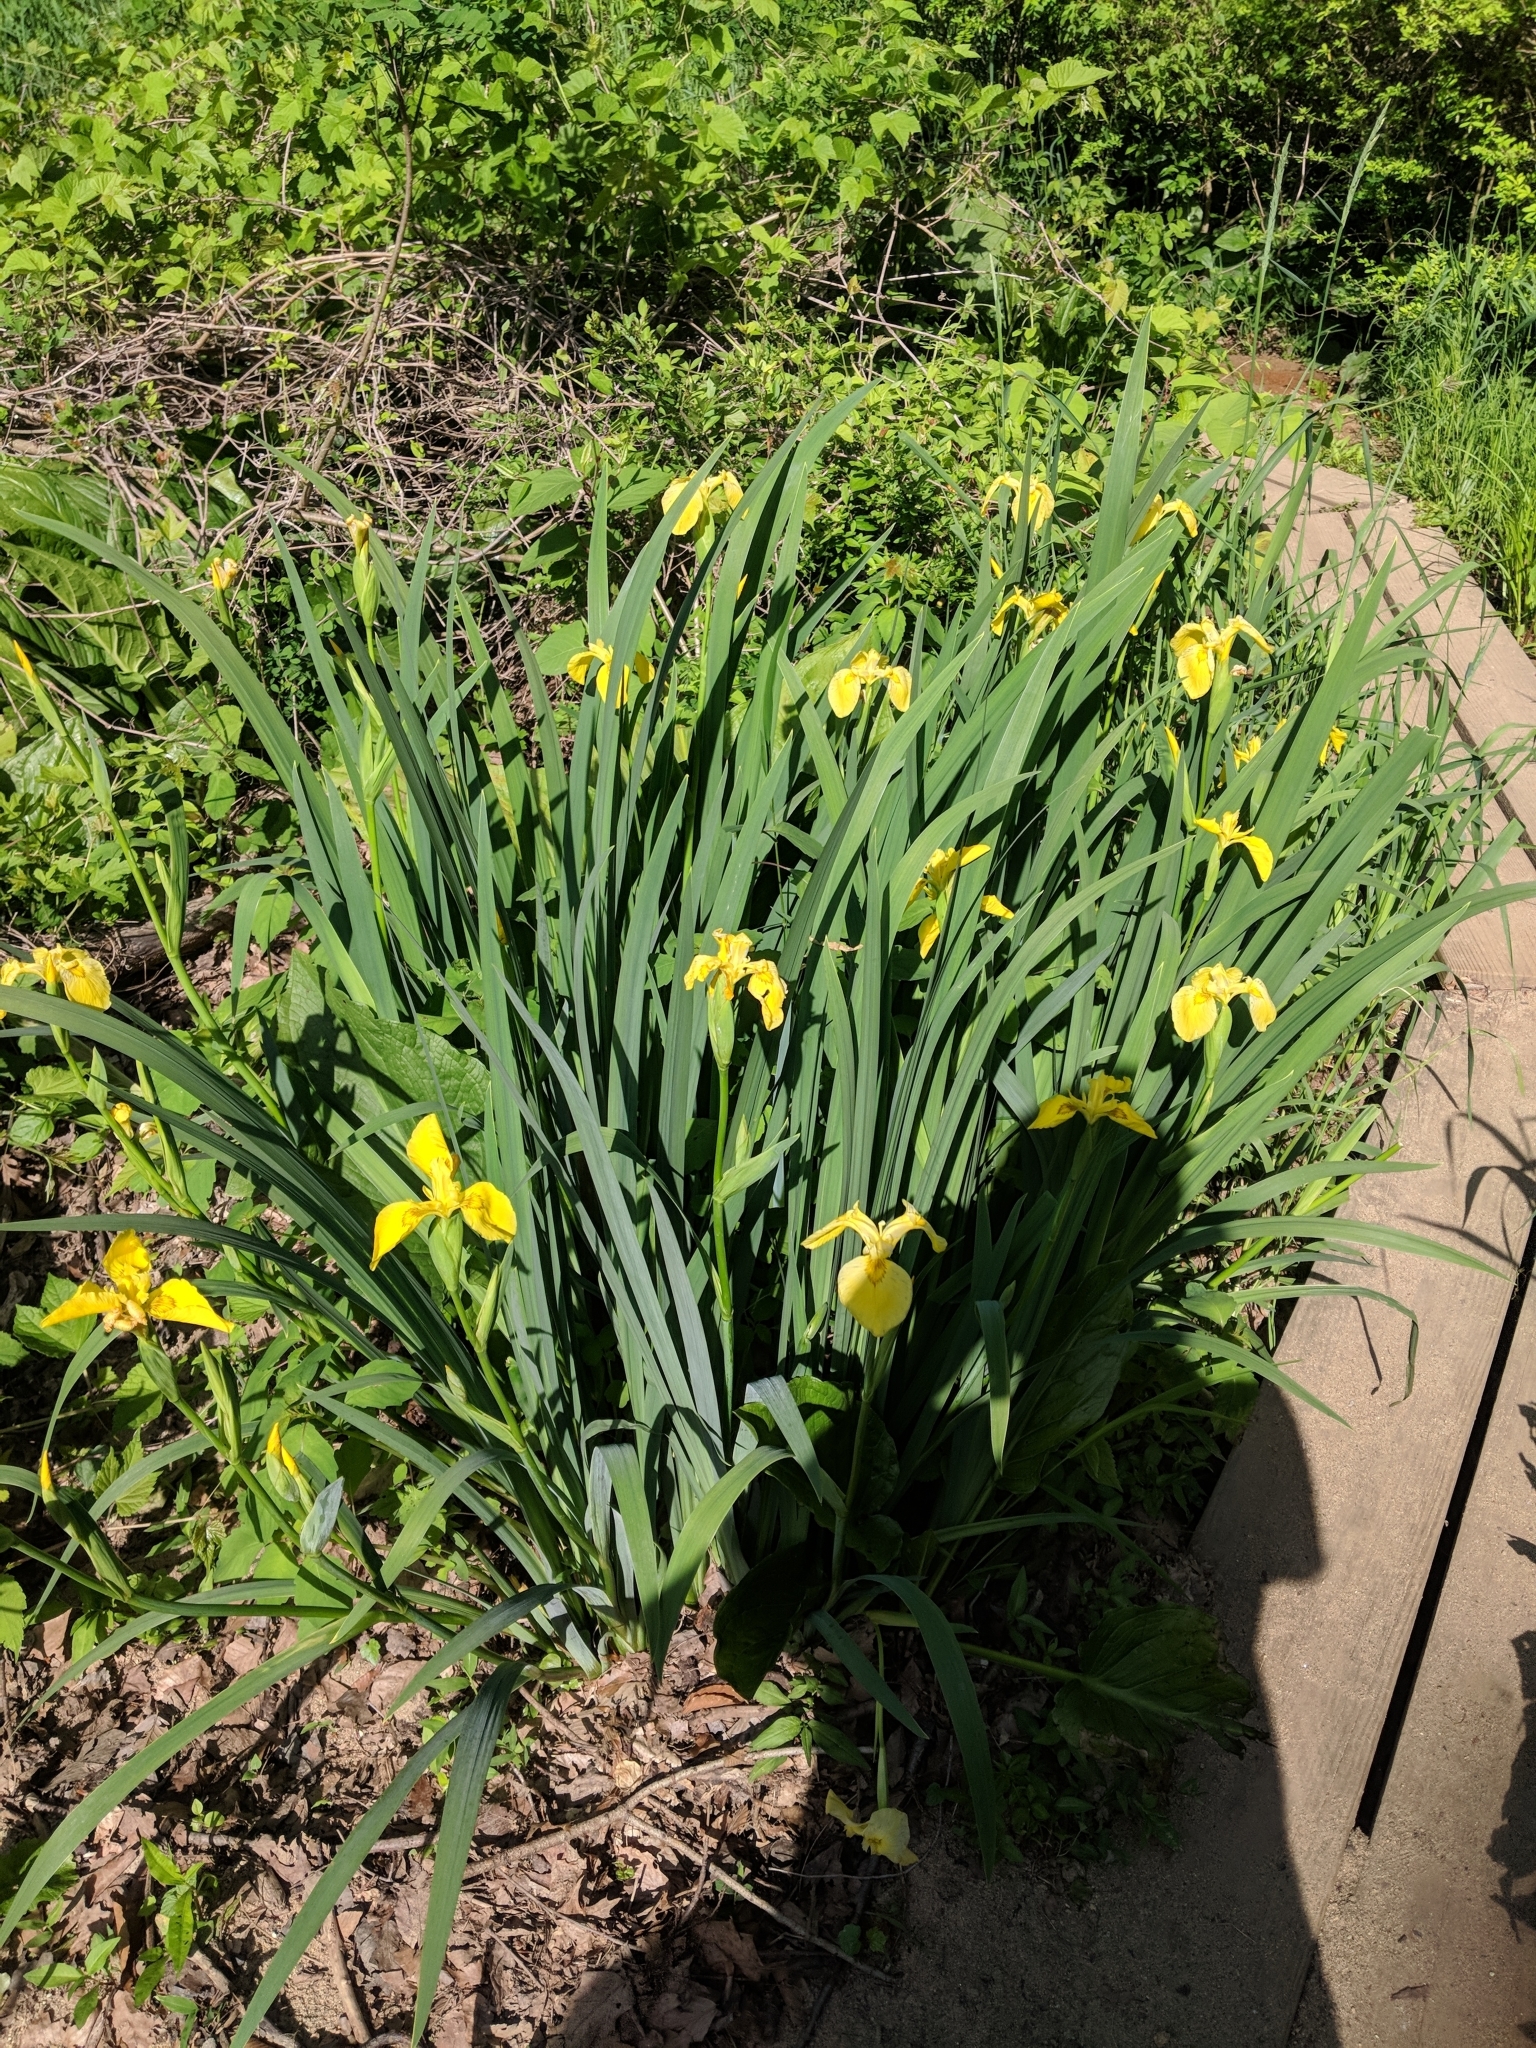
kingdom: Plantae
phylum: Tracheophyta
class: Liliopsida
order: Asparagales
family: Iridaceae
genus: Iris
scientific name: Iris pseudacorus
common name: Yellow flag
